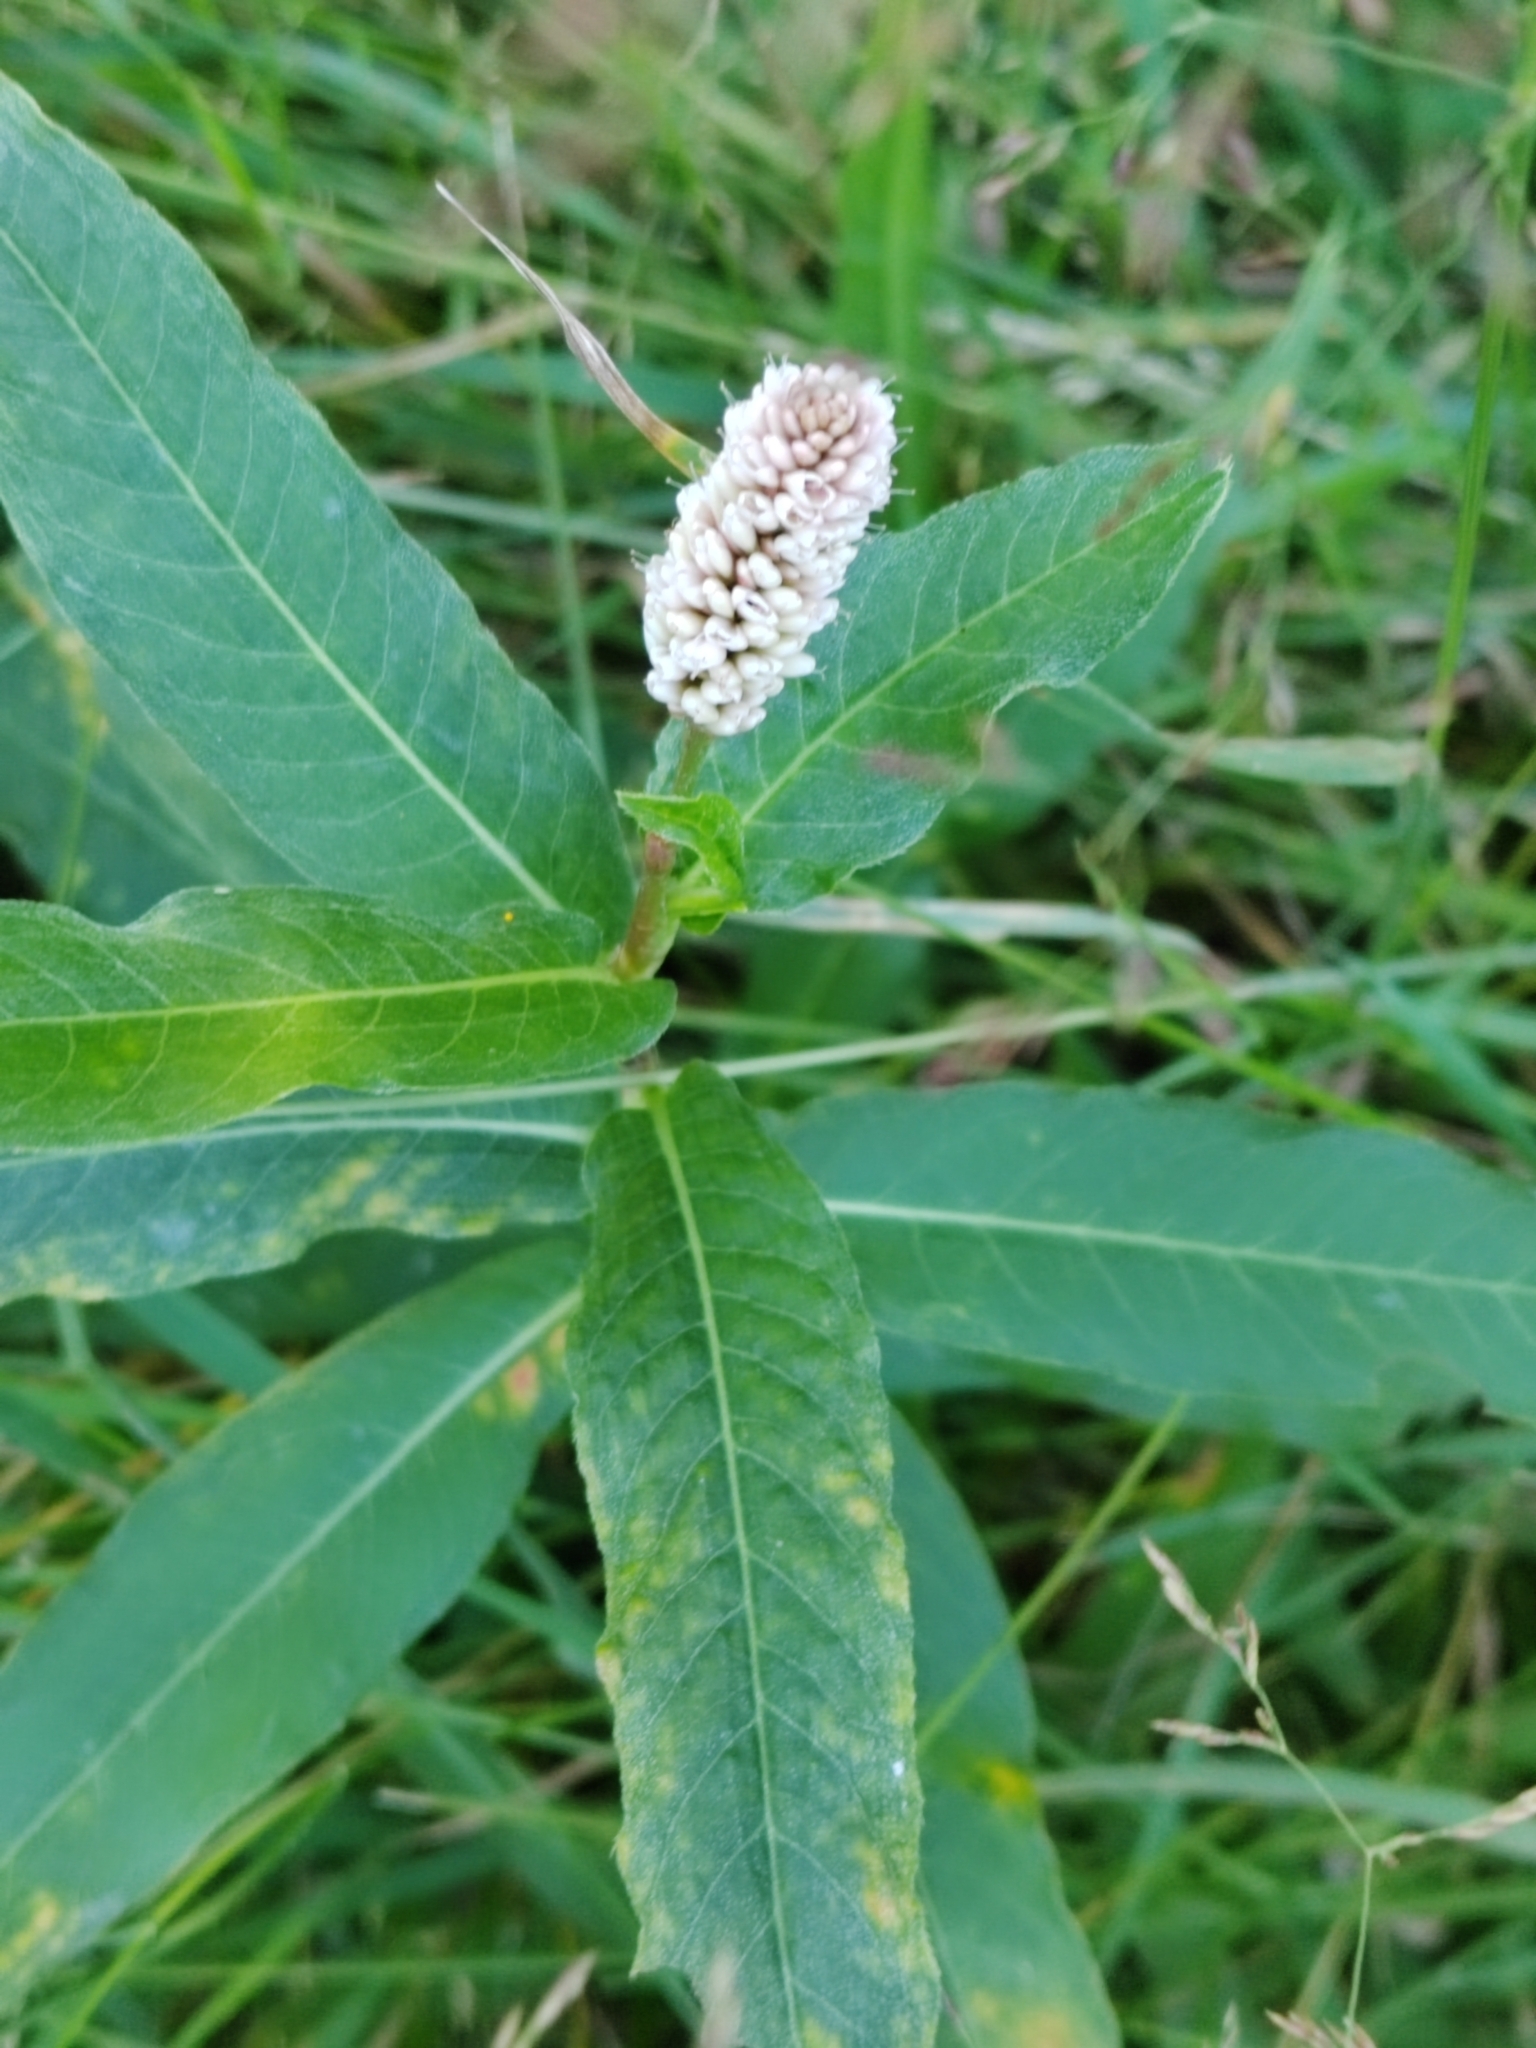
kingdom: Plantae
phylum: Tracheophyta
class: Magnoliopsida
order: Caryophyllales
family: Polygonaceae
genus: Persicaria
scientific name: Persicaria amphibia
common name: Amphibious bistort
